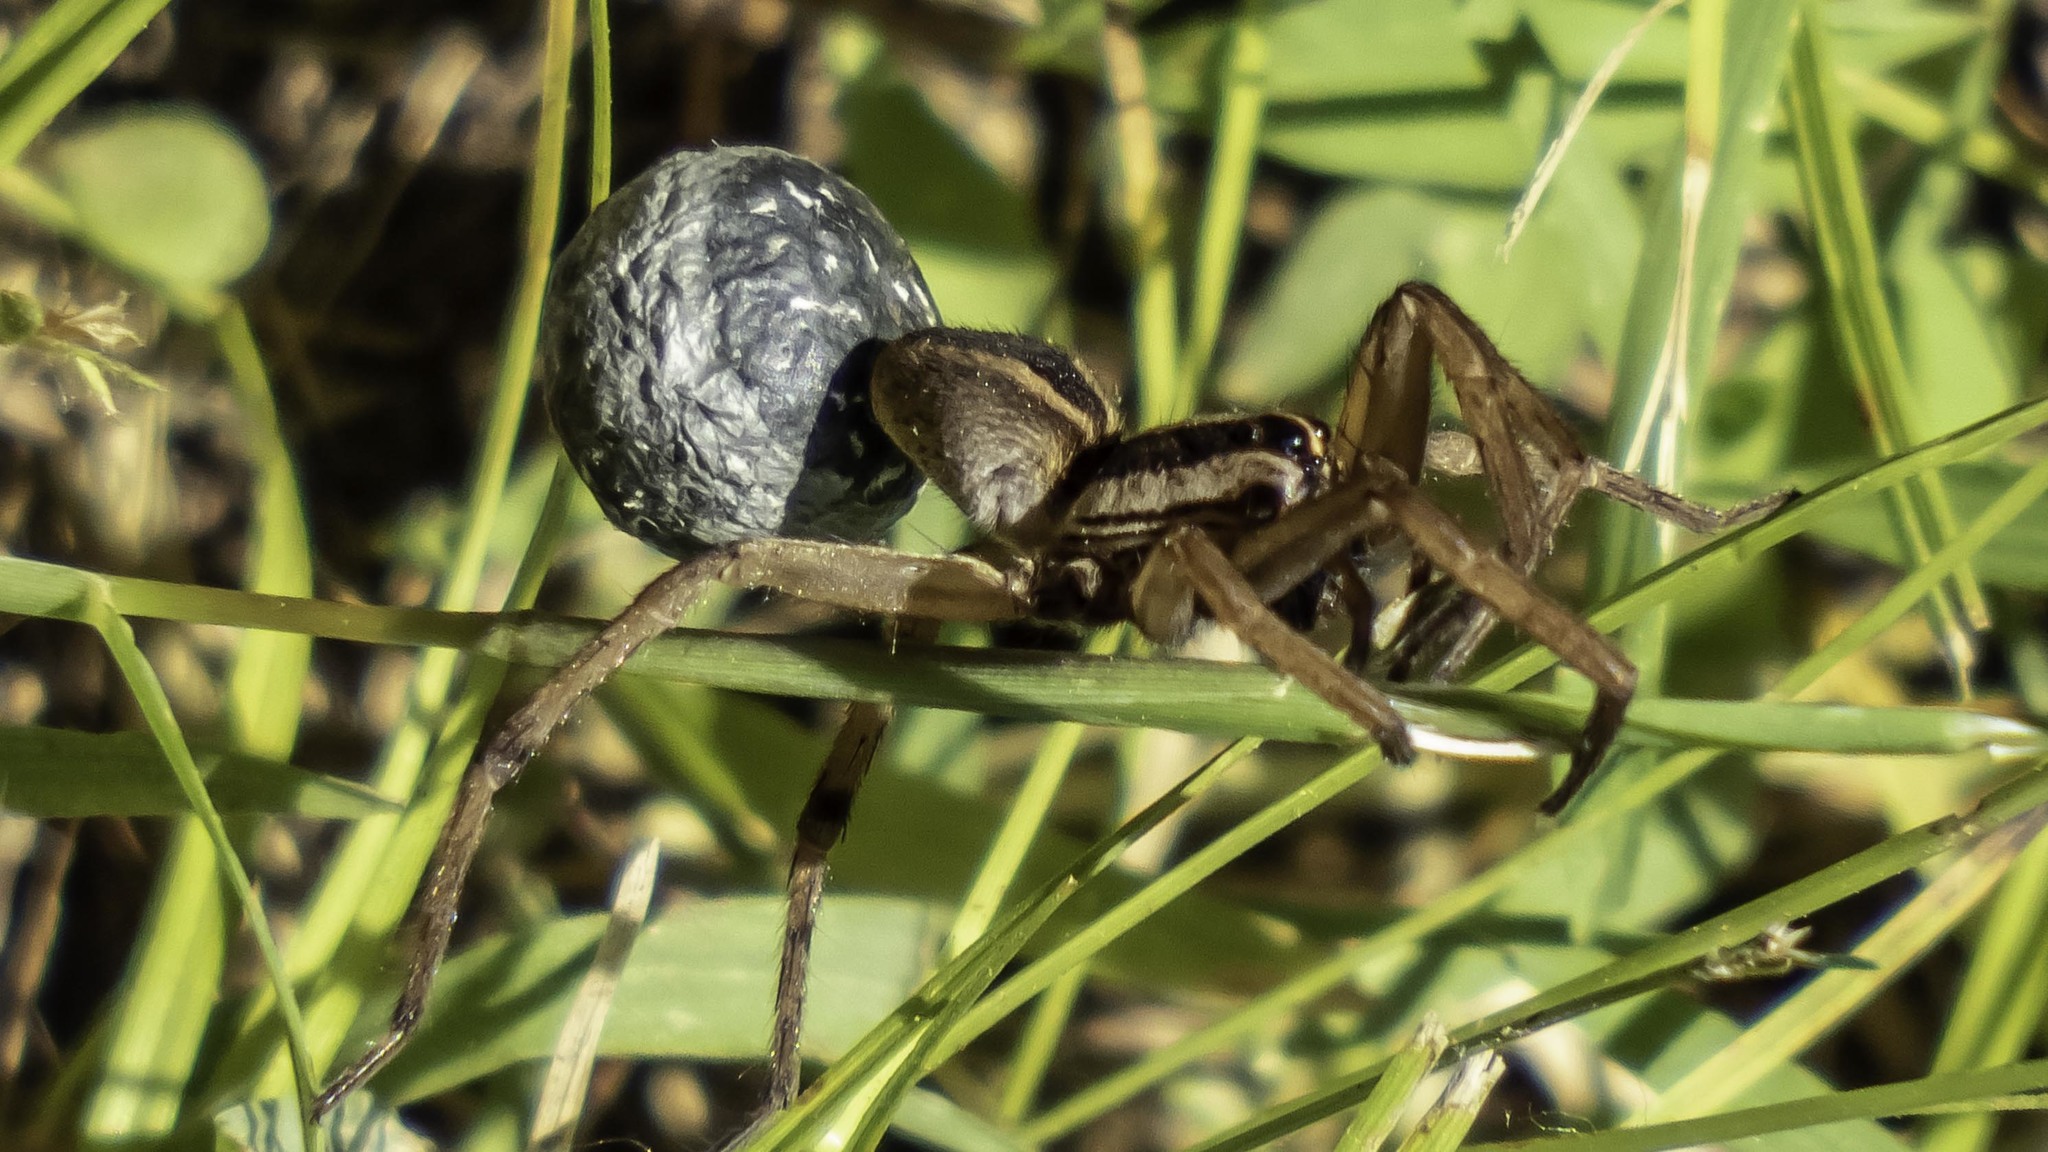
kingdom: Animalia
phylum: Arthropoda
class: Arachnida
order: Araneae
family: Lycosidae
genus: Rabidosa
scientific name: Rabidosa punctulata
